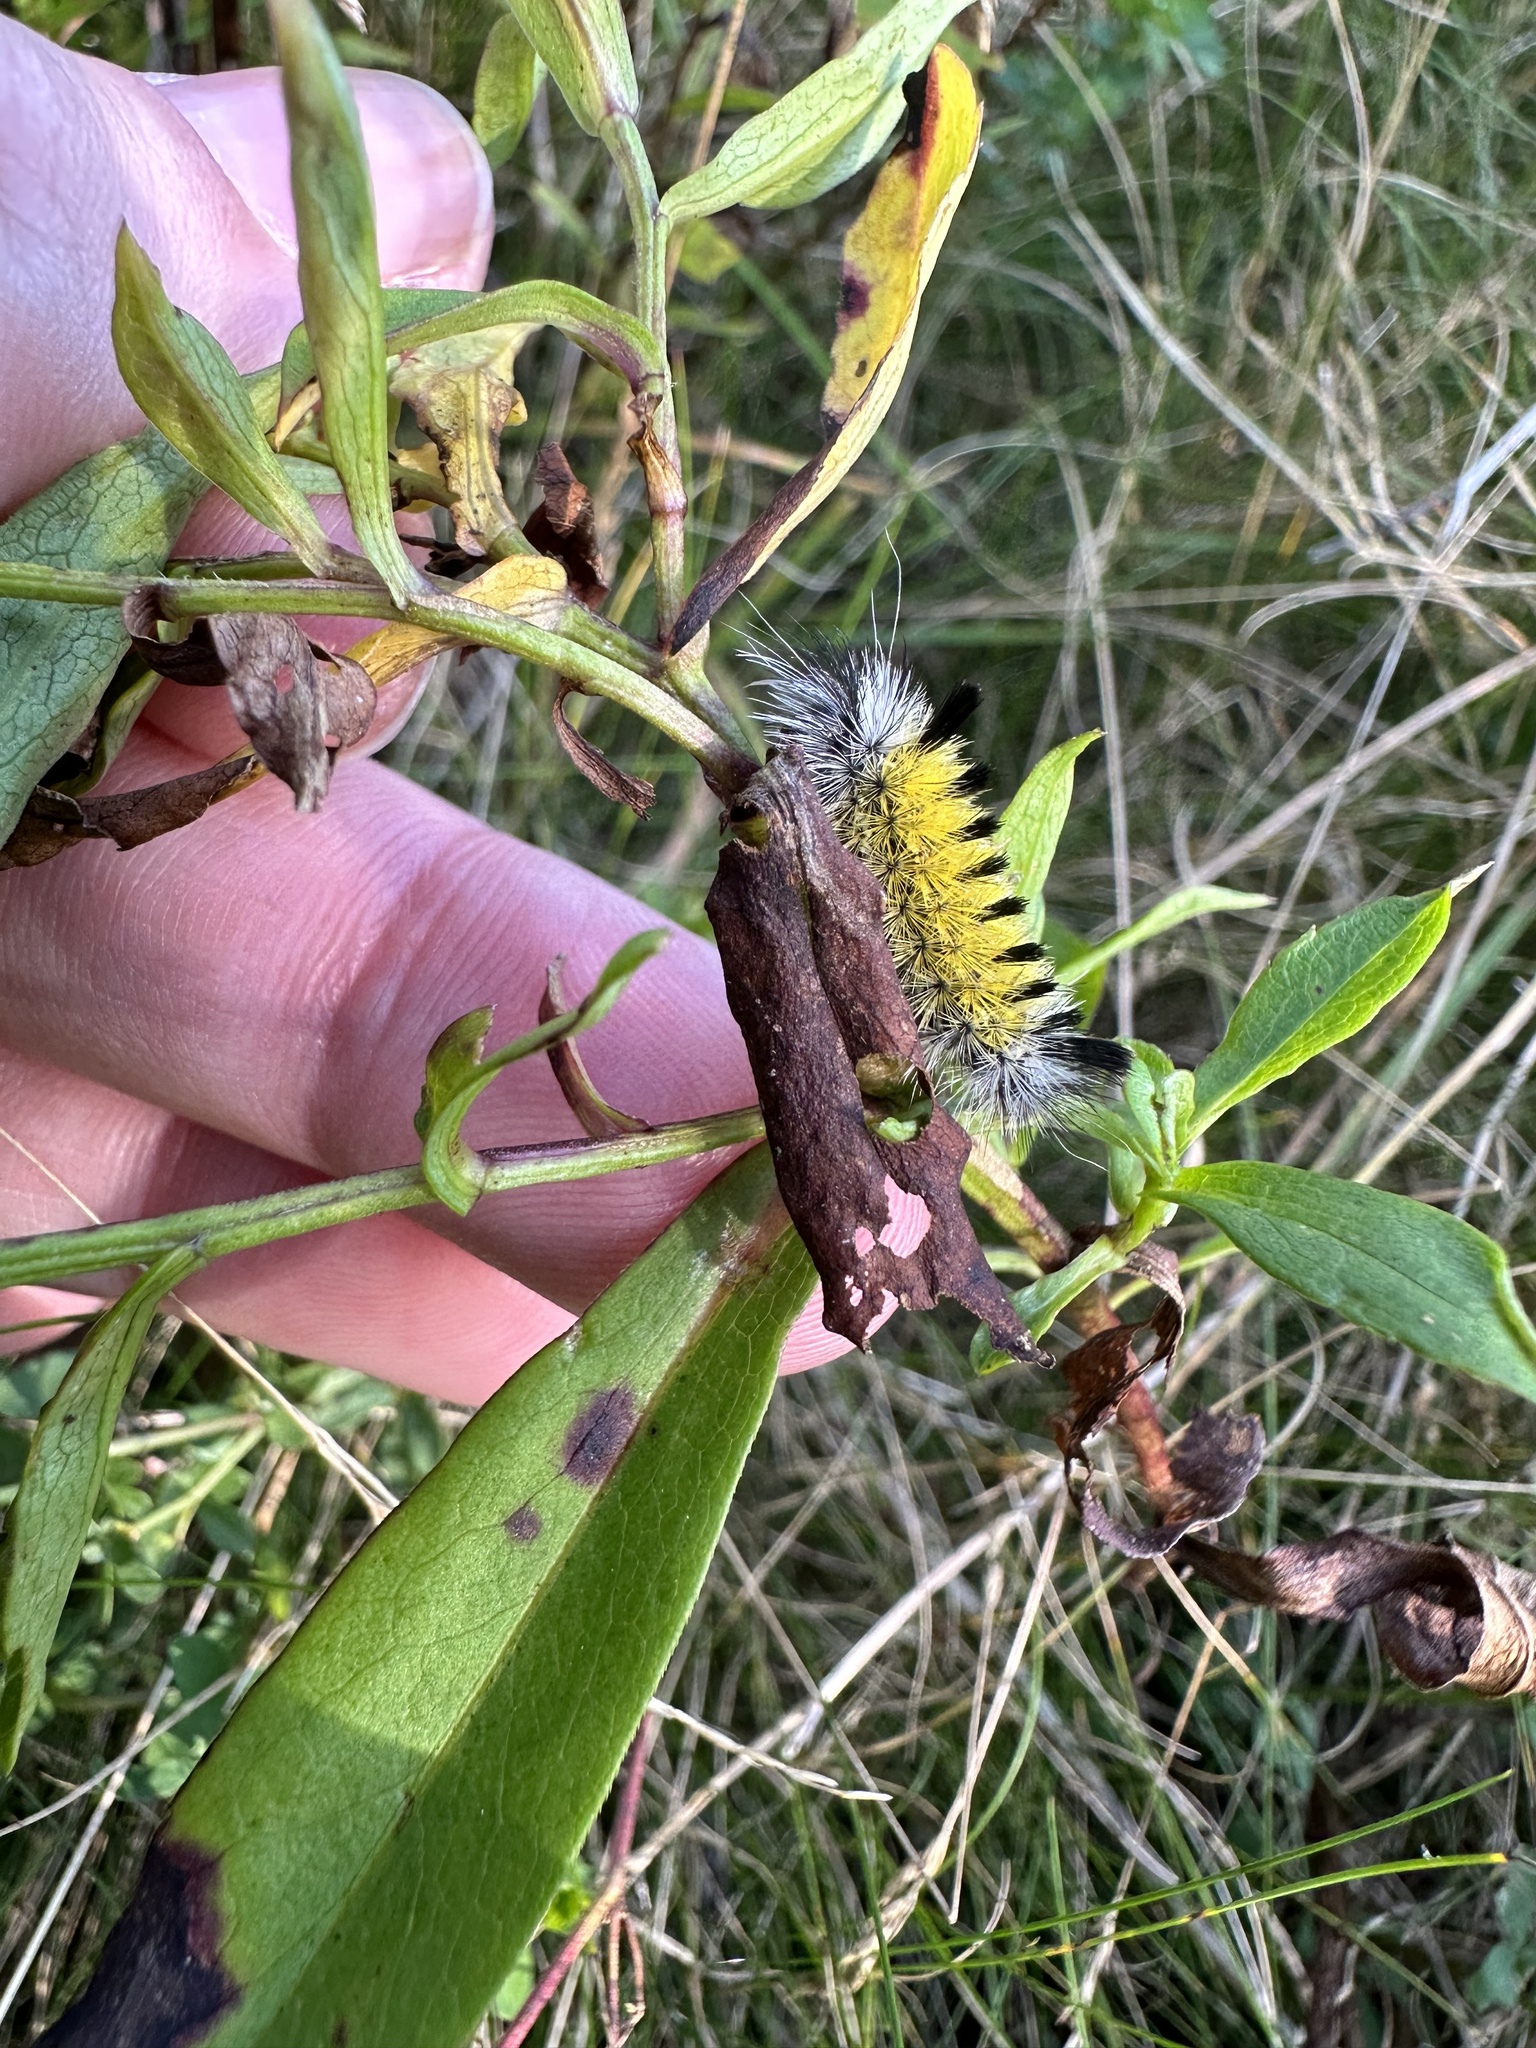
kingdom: Animalia
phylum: Arthropoda
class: Insecta
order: Lepidoptera
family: Erebidae
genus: Ctenucha
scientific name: Ctenucha virginica
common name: Virginia ctenucha moth
